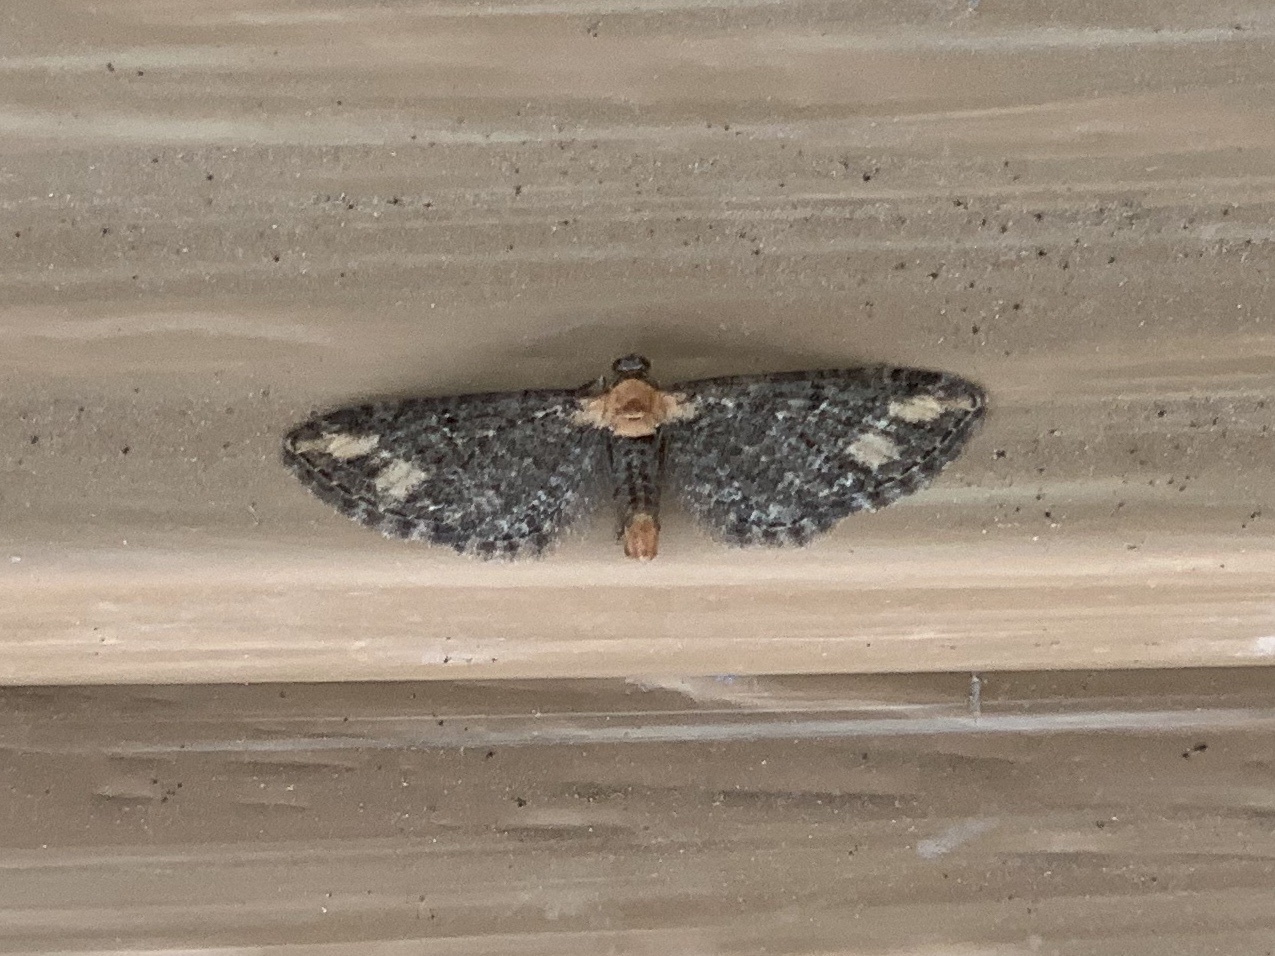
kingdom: Animalia
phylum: Arthropoda
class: Insecta
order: Lepidoptera
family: Geometridae
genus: Eupithecia
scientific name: Eupithecia flavigutta
